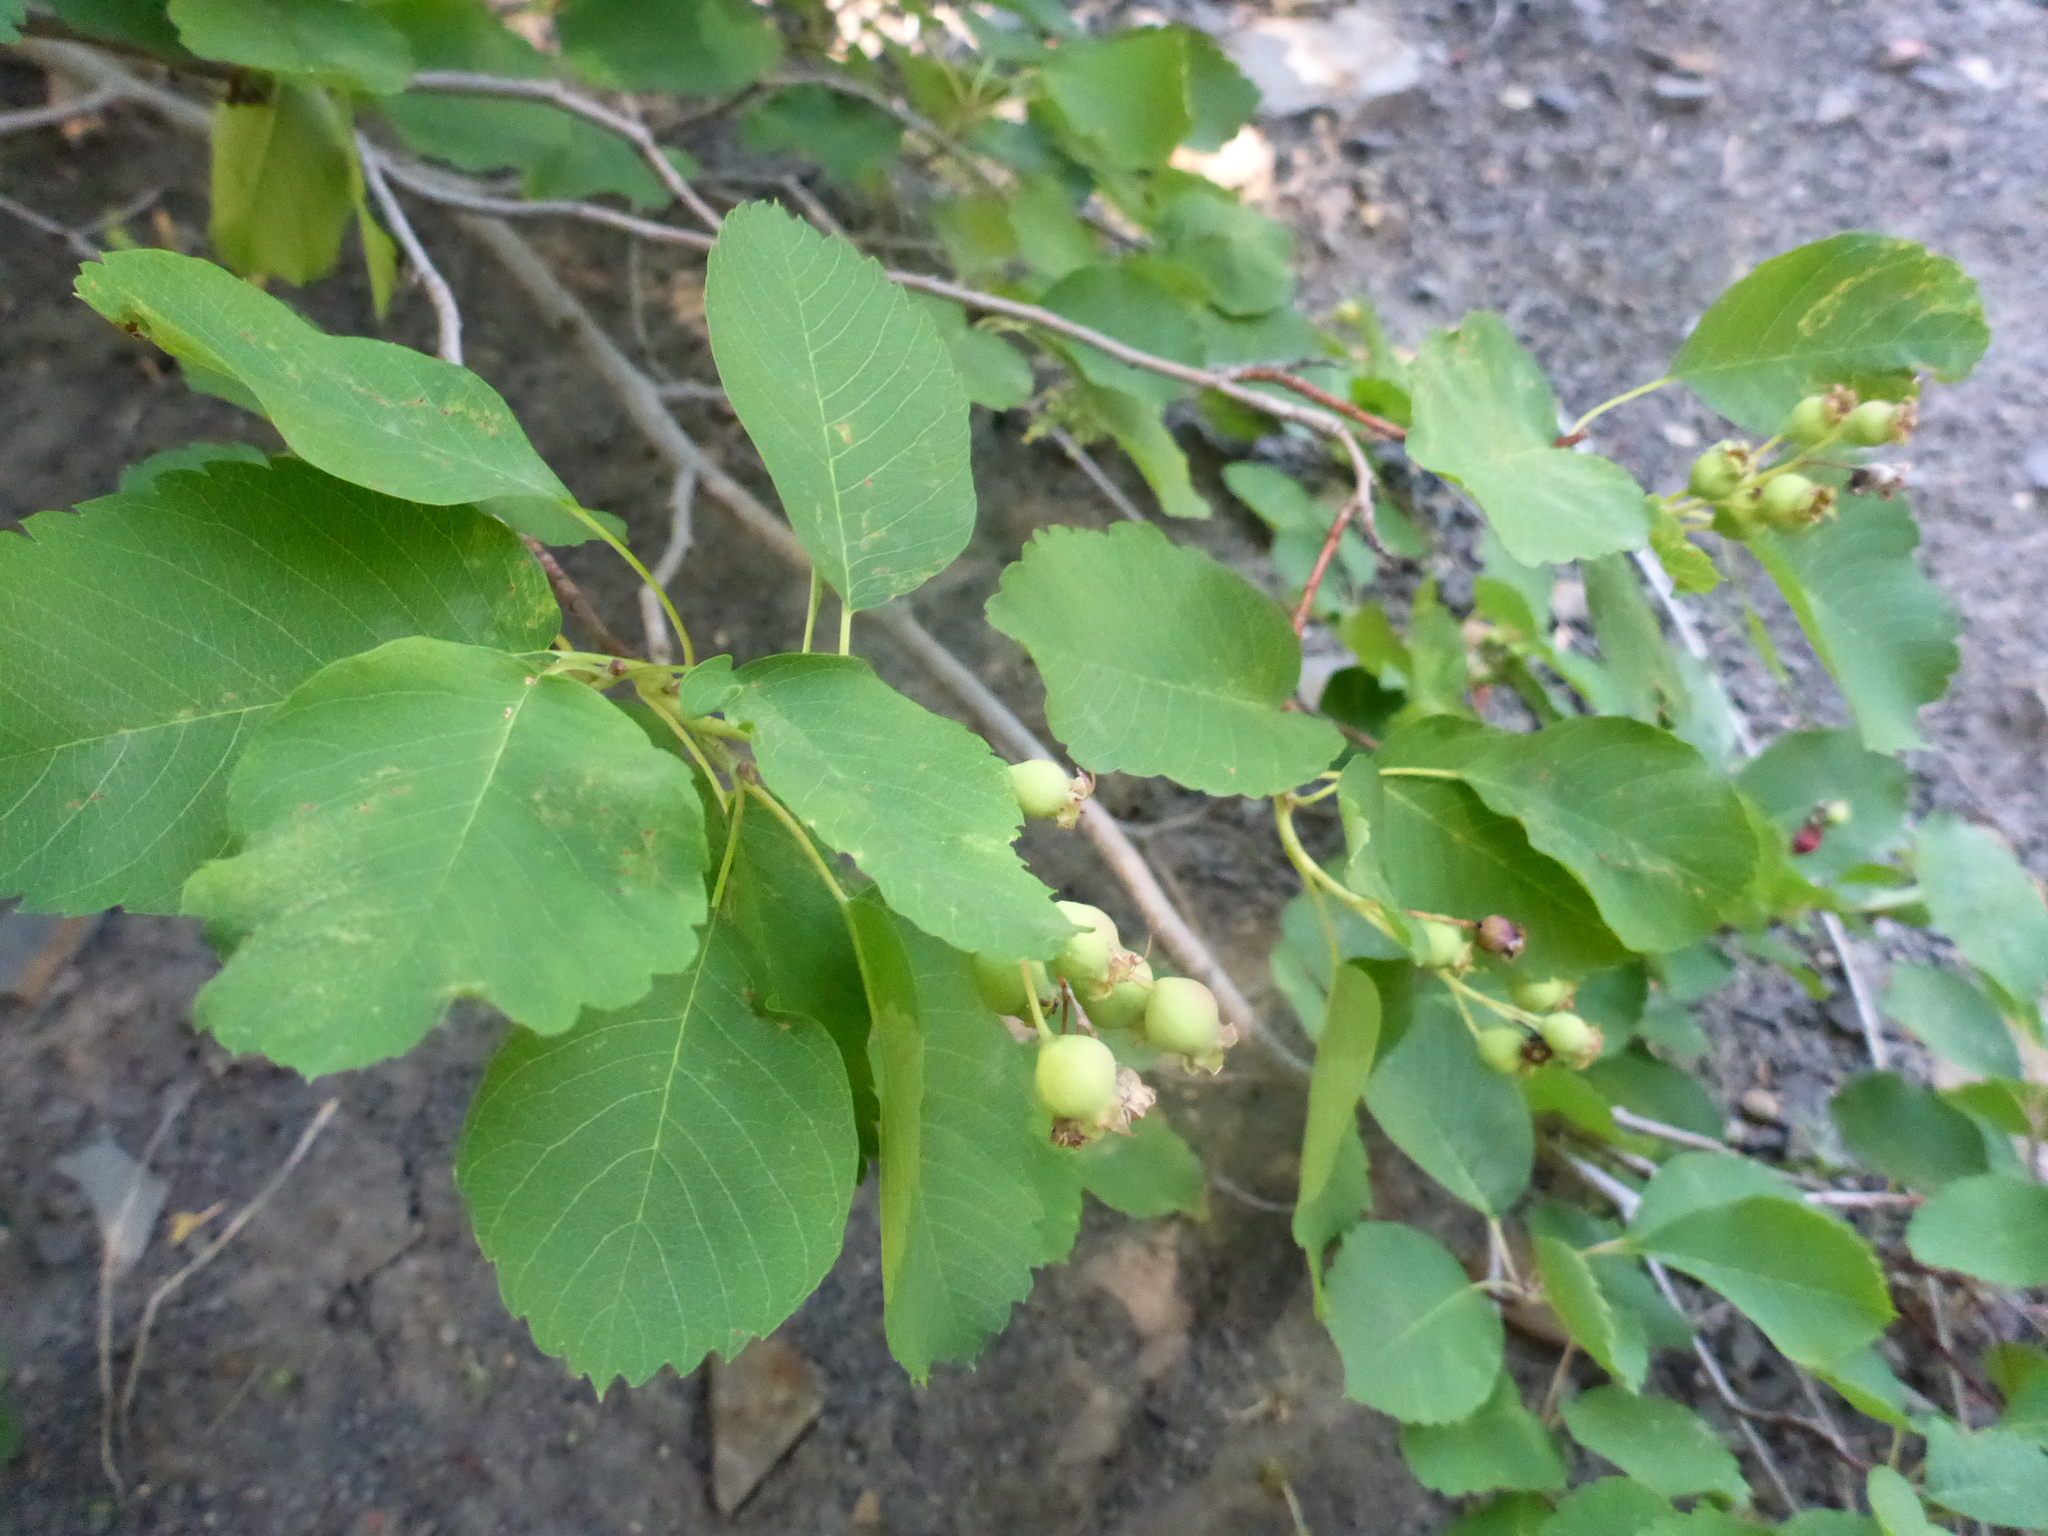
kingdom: Plantae
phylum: Tracheophyta
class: Magnoliopsida
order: Rosales
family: Rosaceae
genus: Amelanchier
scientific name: Amelanchier alnifolia
